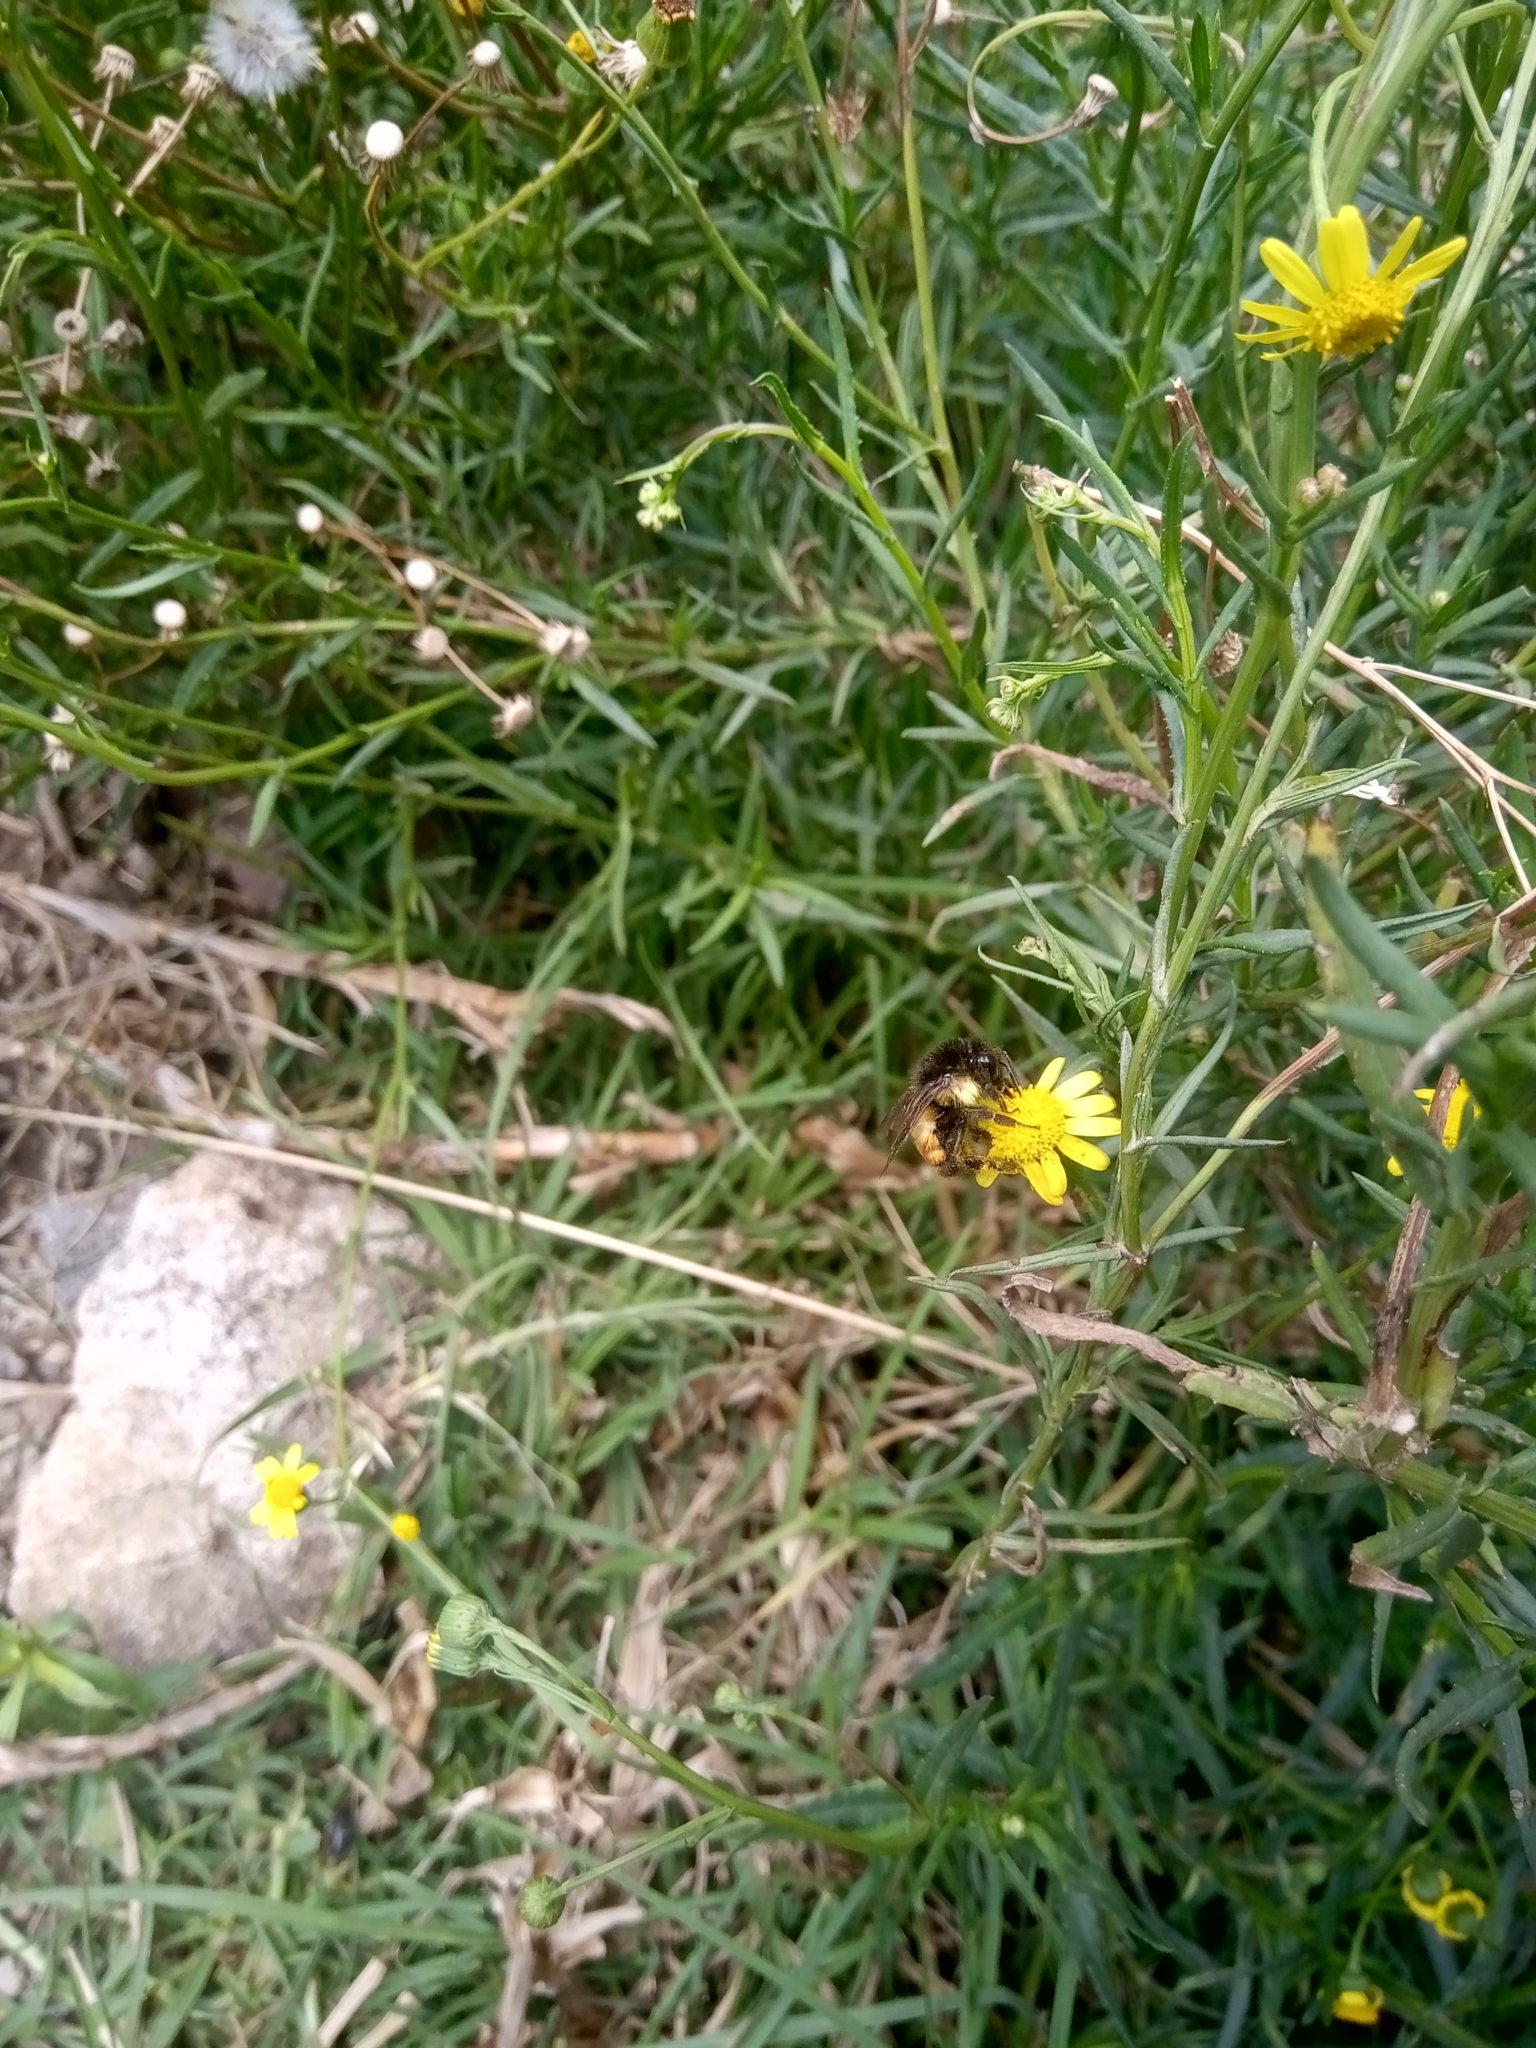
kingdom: Animalia
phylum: Arthropoda
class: Insecta
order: Hymenoptera
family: Apidae
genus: Bombus
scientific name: Bombus ephippiatus
